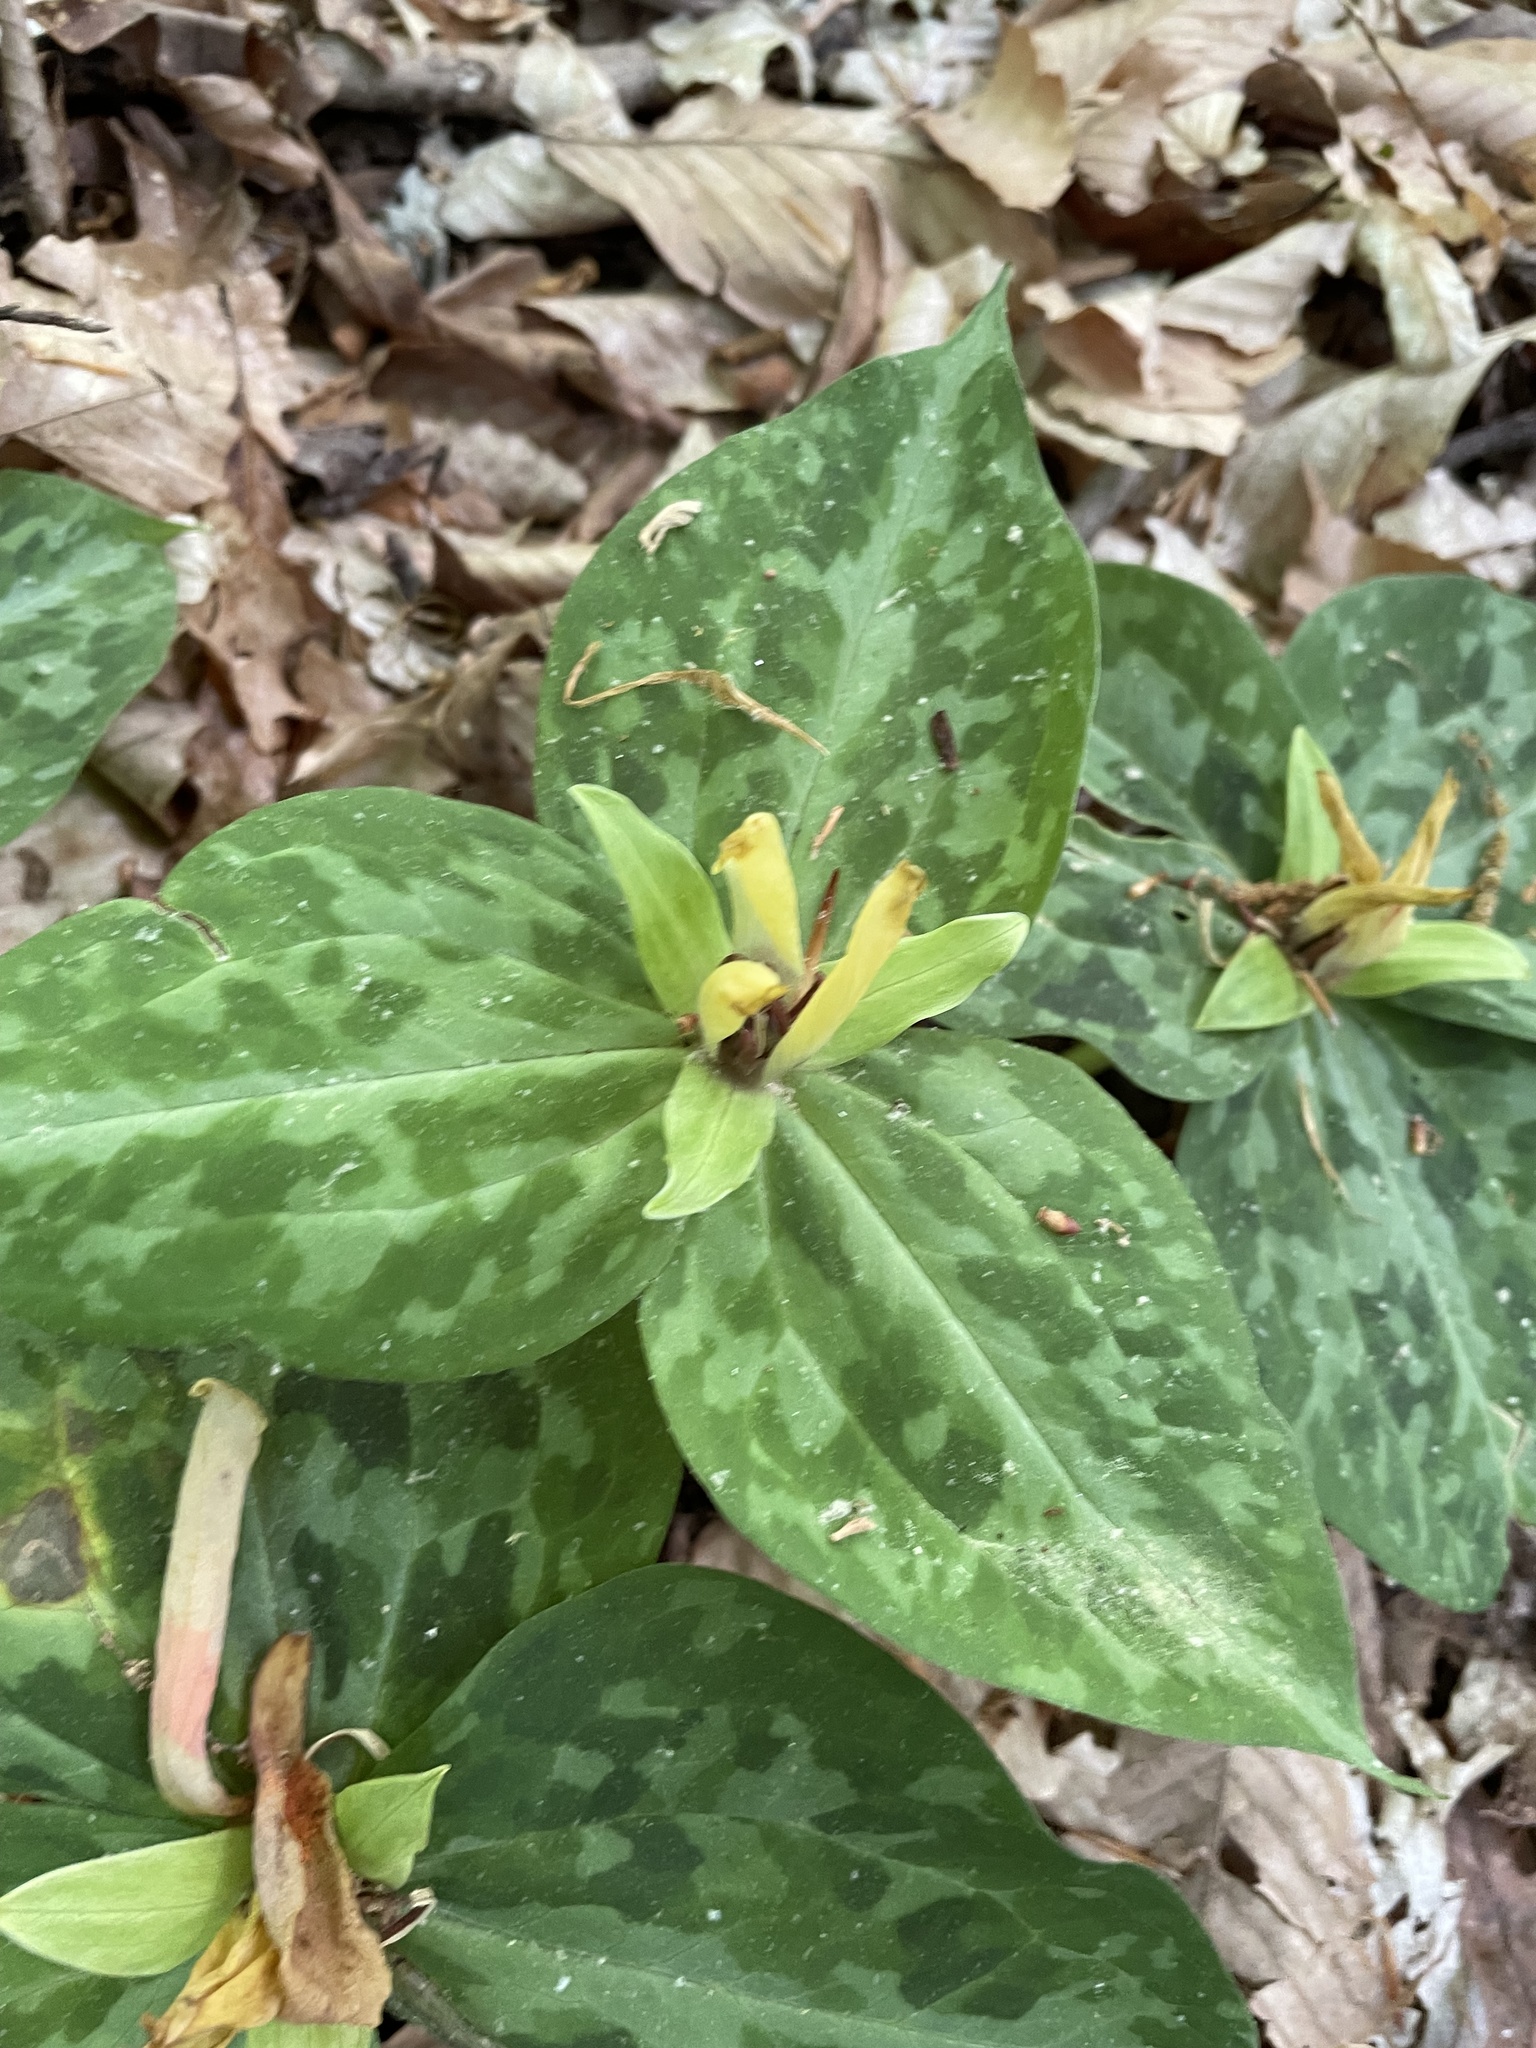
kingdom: Plantae
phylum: Tracheophyta
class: Liliopsida
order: Liliales
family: Melanthiaceae
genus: Trillium
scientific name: Trillium discolor
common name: Faded trillium
